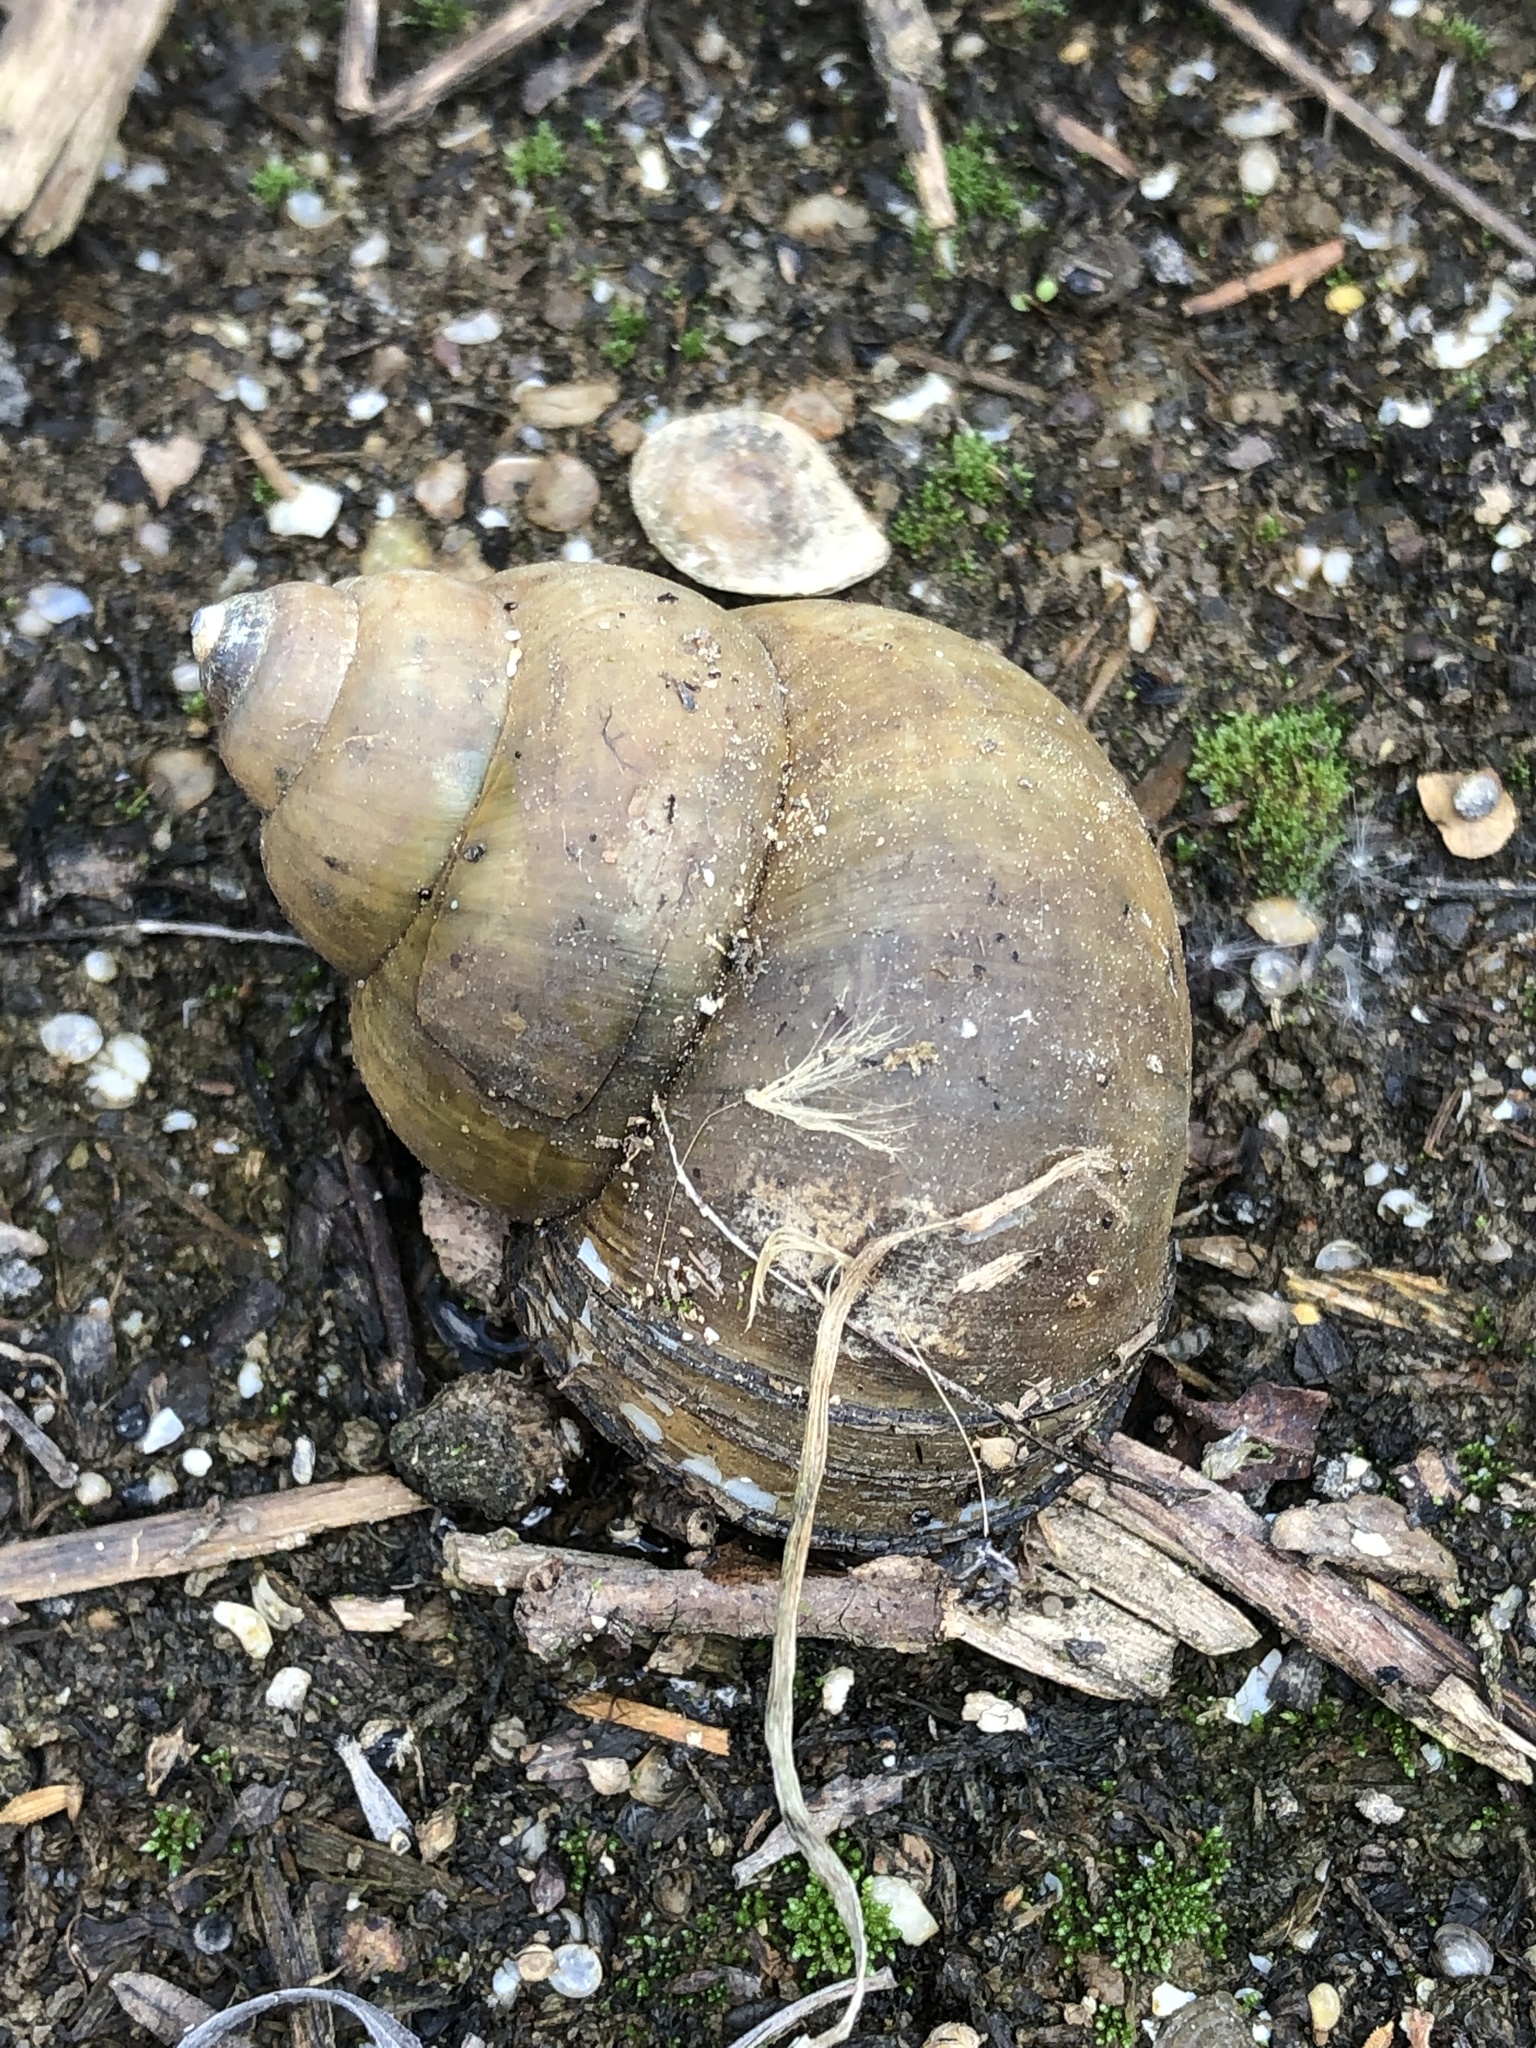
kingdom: Animalia
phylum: Mollusca
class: Gastropoda
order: Architaenioglossa
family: Viviparidae
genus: Cipangopaludina
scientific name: Cipangopaludina chinensis
